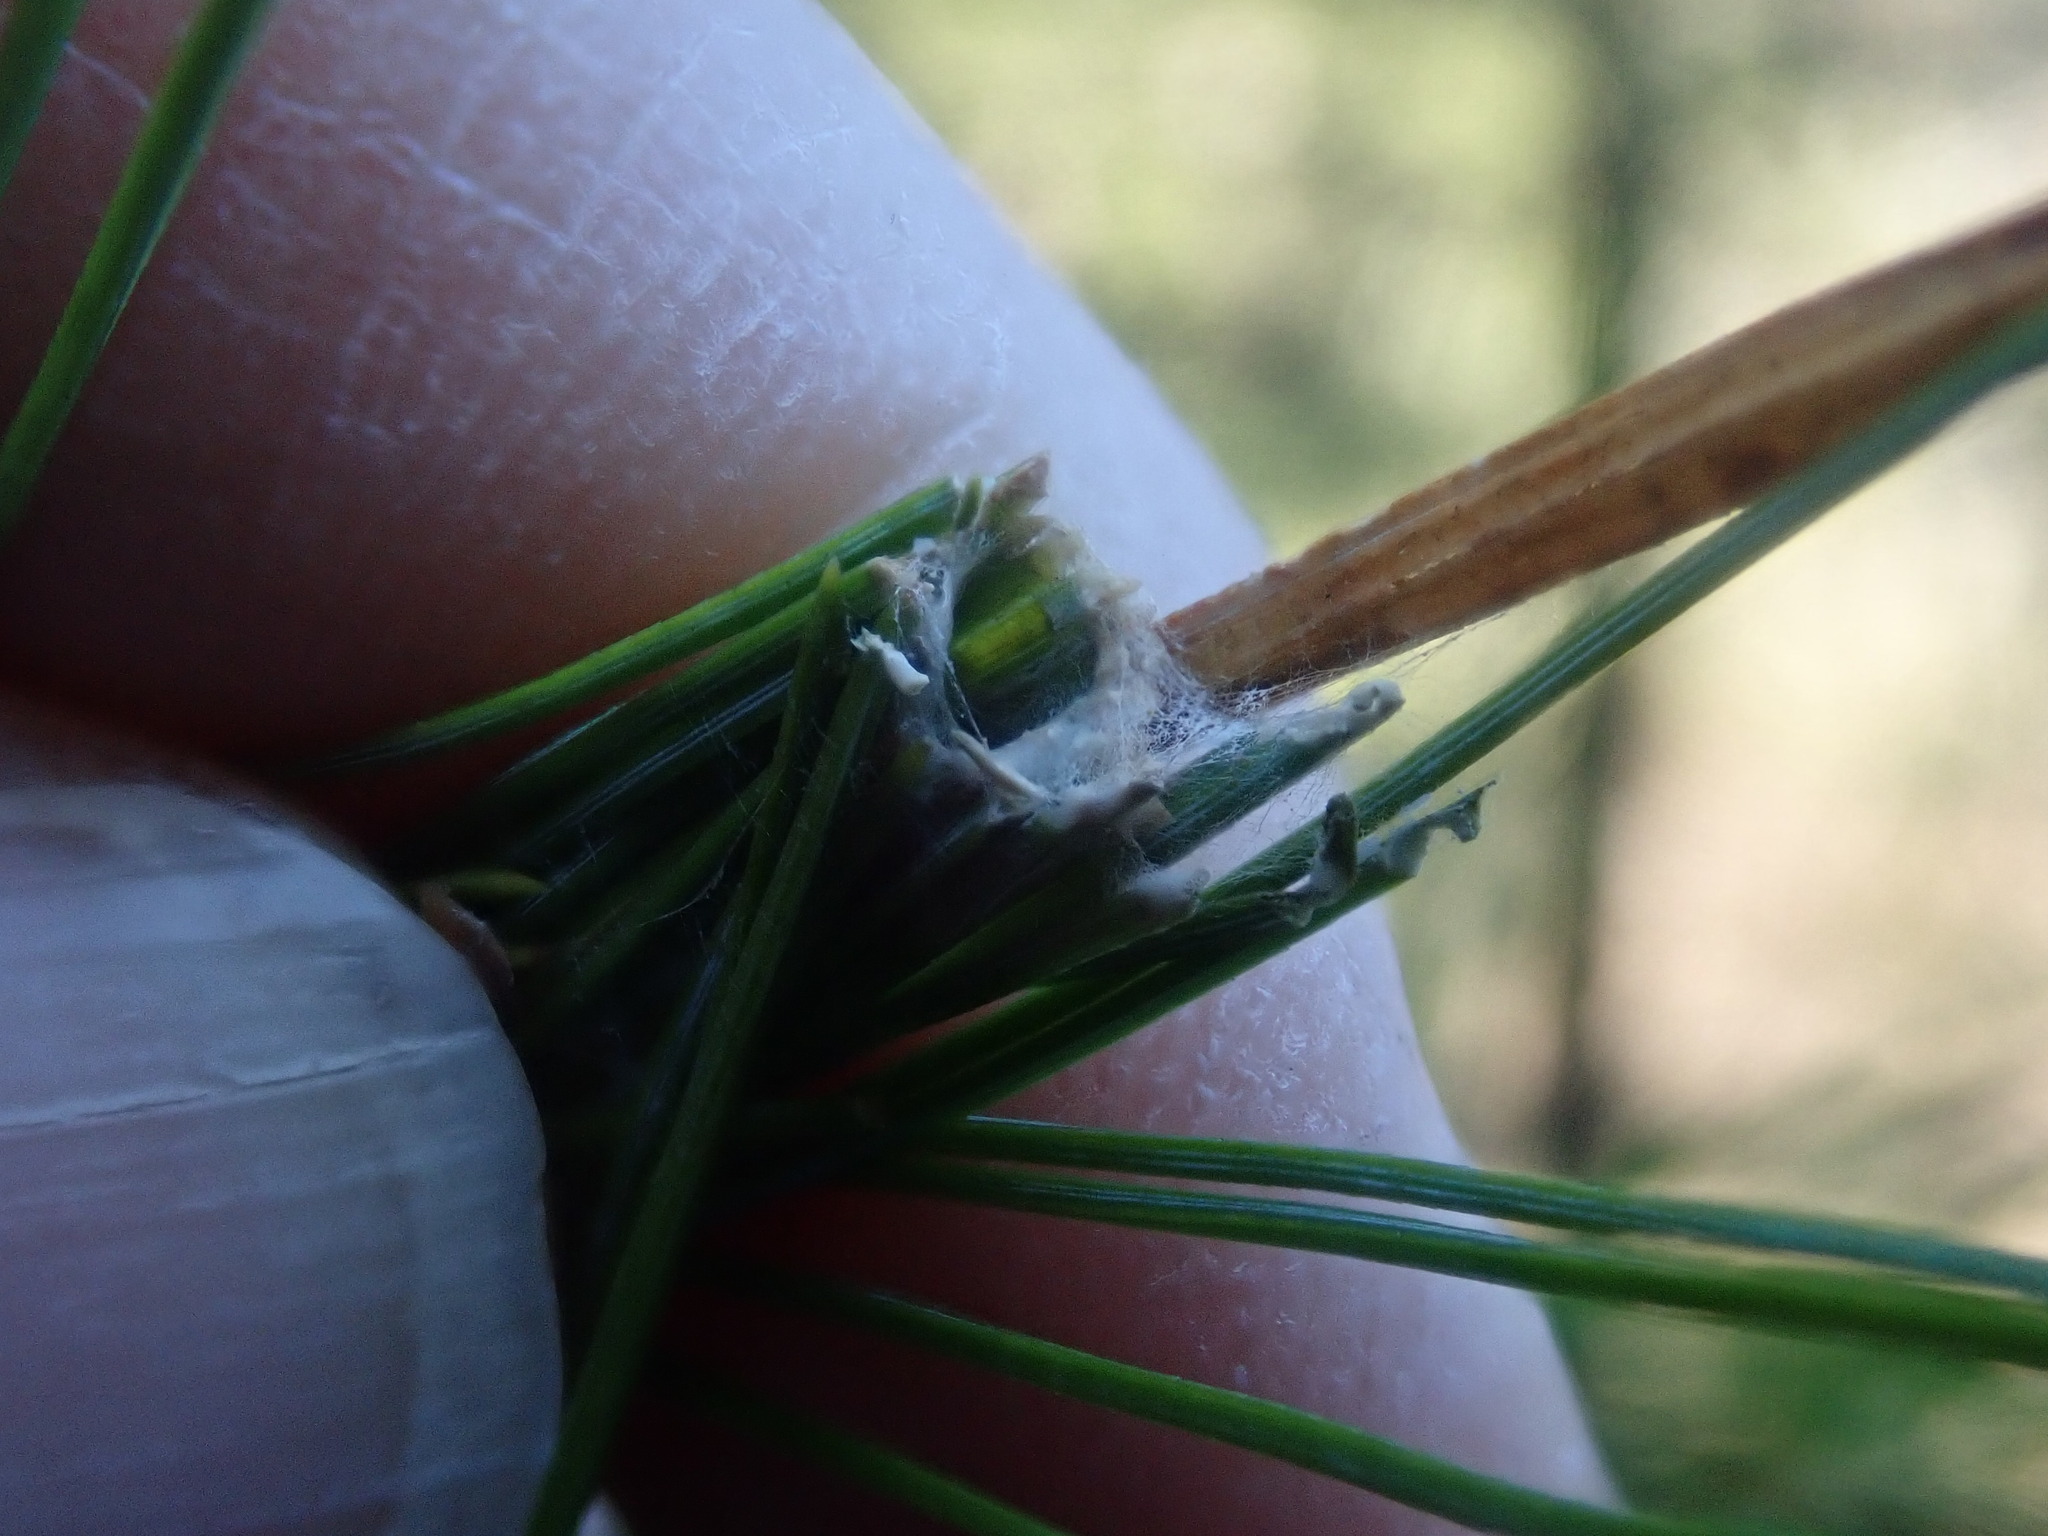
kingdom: Animalia
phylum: Arthropoda
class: Insecta
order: Lepidoptera
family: Tortricidae
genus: Argyrotaenia
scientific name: Argyrotaenia pinatubana
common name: Pine tube moth
